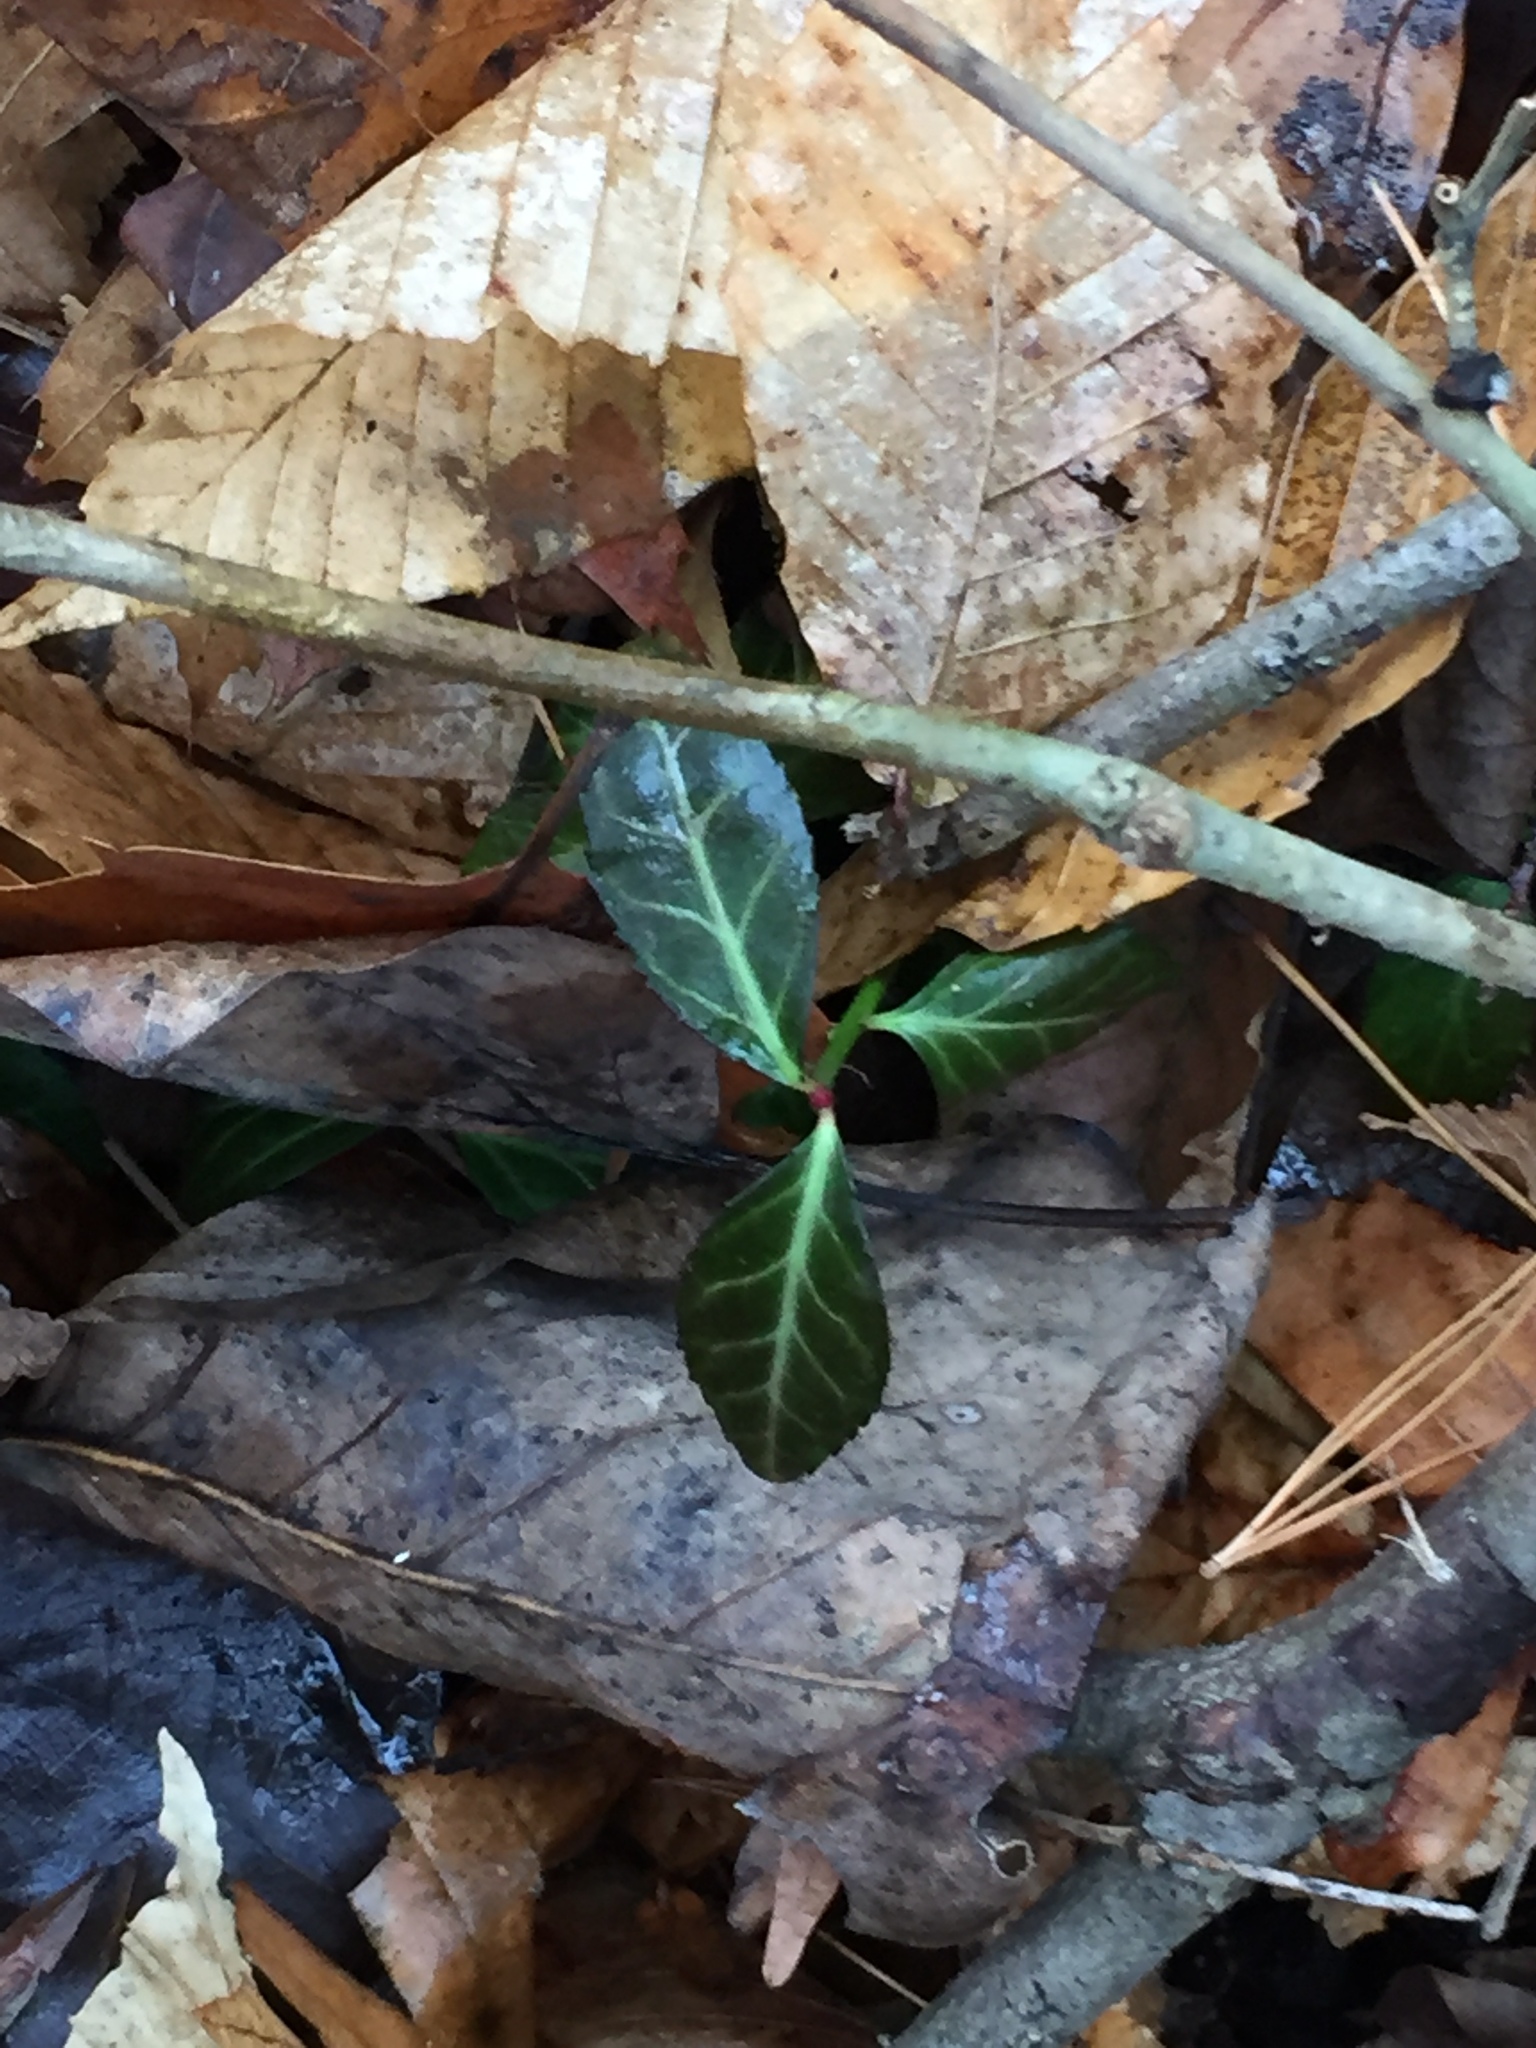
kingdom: Plantae
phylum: Tracheophyta
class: Magnoliopsida
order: Celastrales
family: Celastraceae
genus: Euonymus
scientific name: Euonymus fortunei
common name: Climbing euonymus
